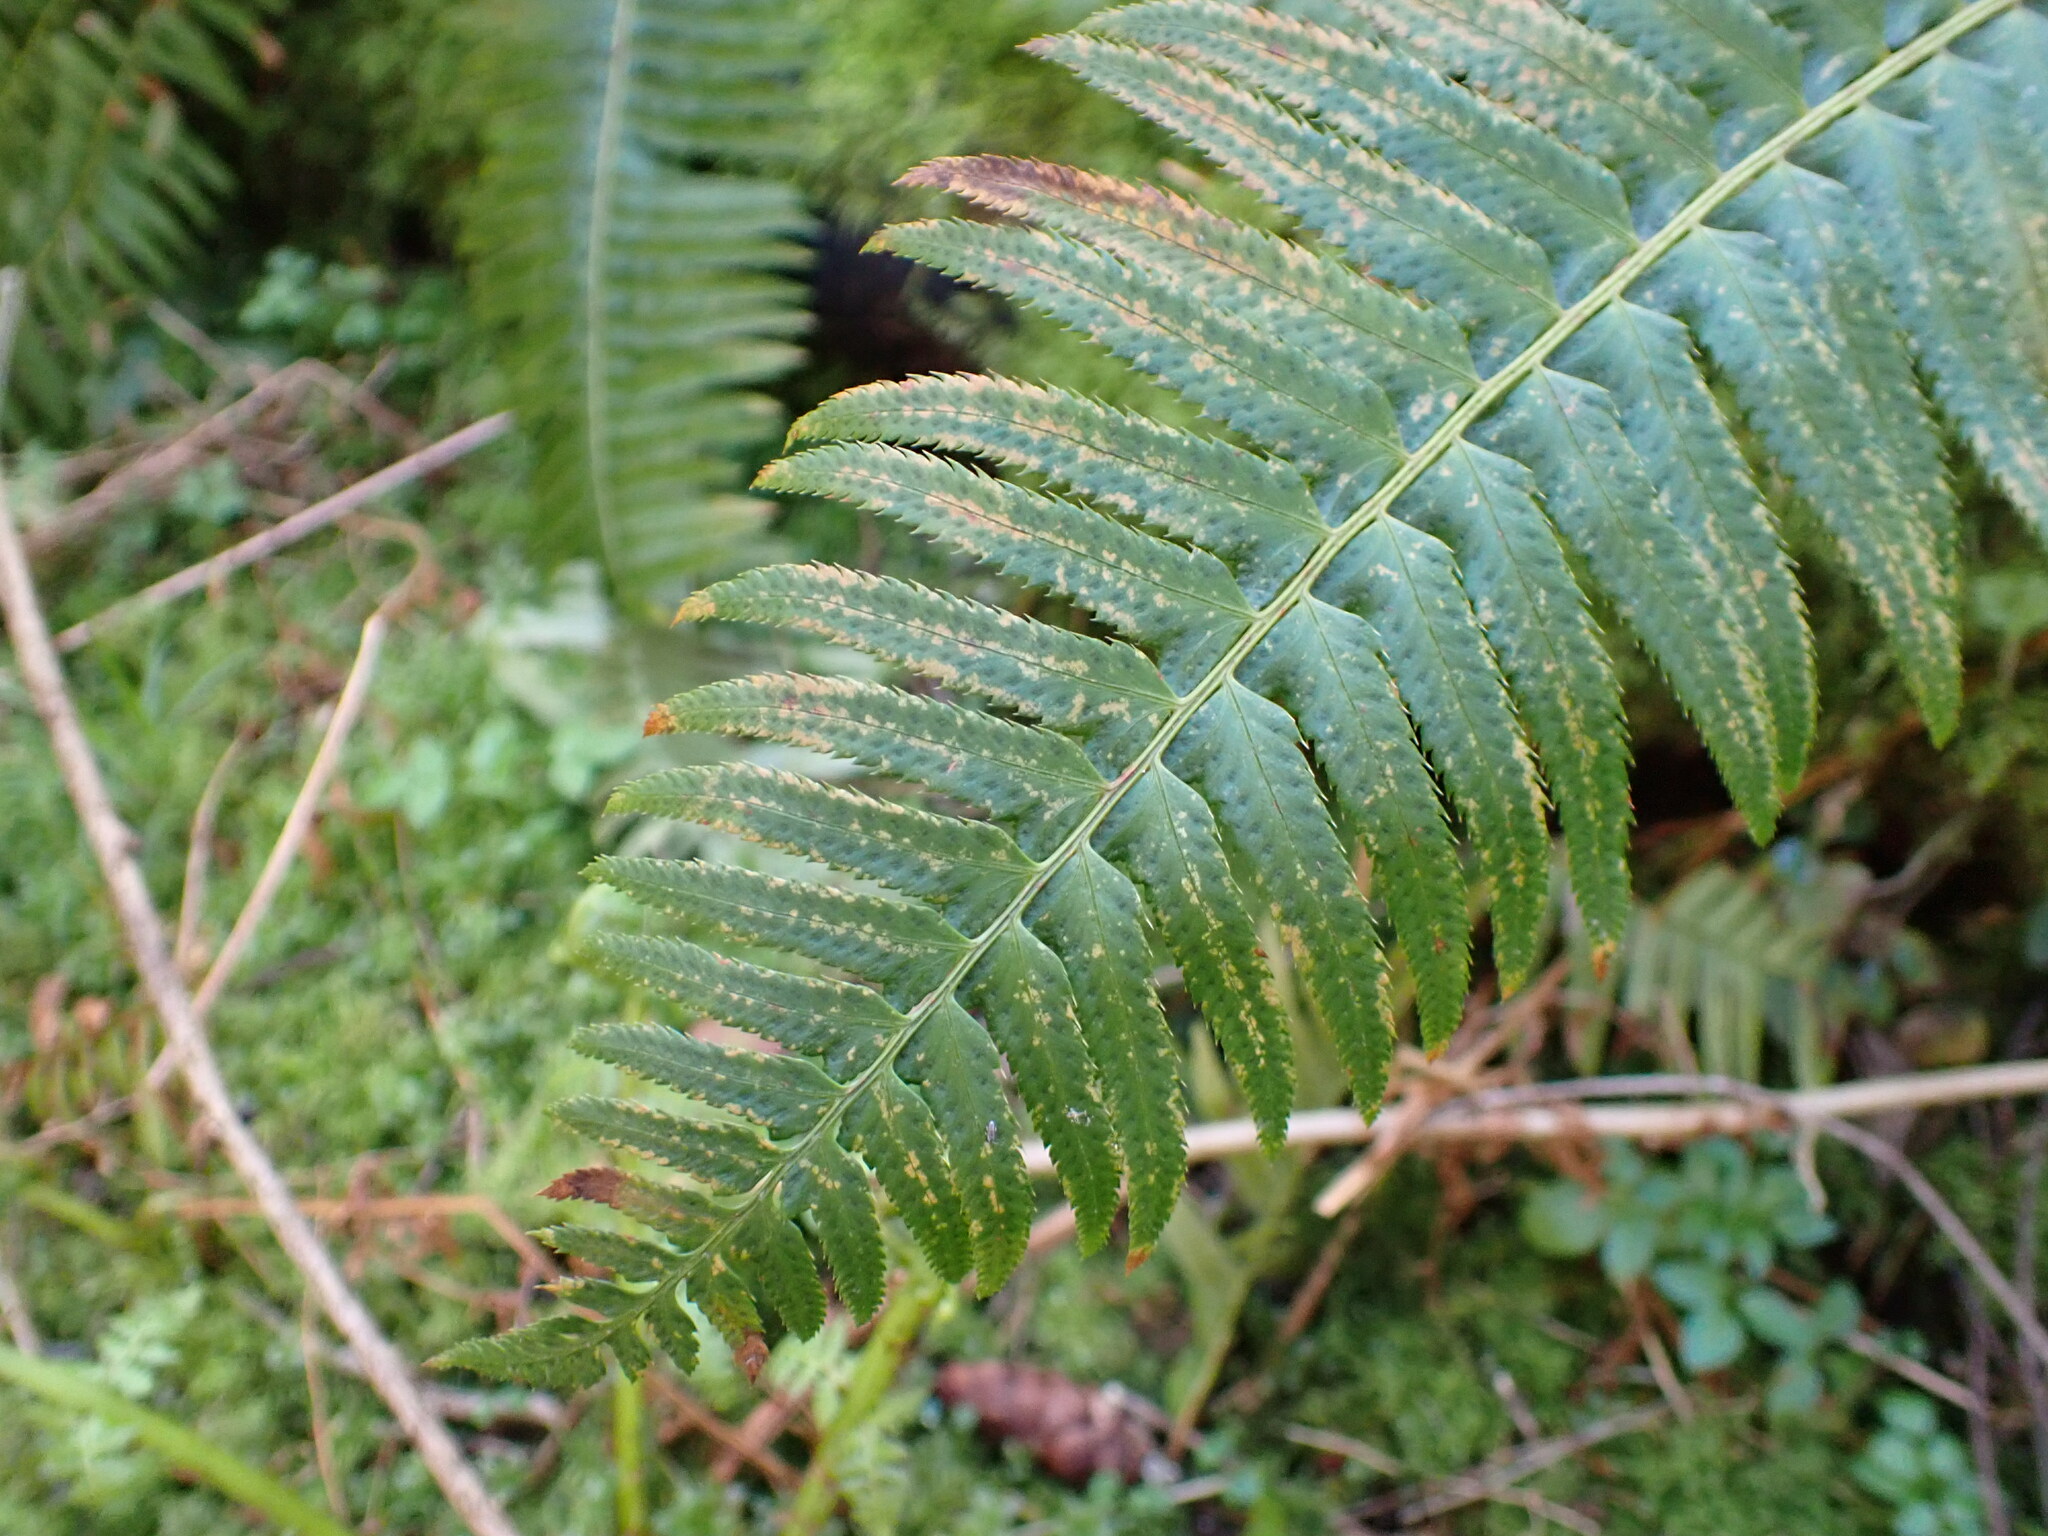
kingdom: Plantae
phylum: Tracheophyta
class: Polypodiopsida
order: Polypodiales
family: Dryopteridaceae
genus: Polystichum
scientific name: Polystichum munitum
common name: Western sword-fern
